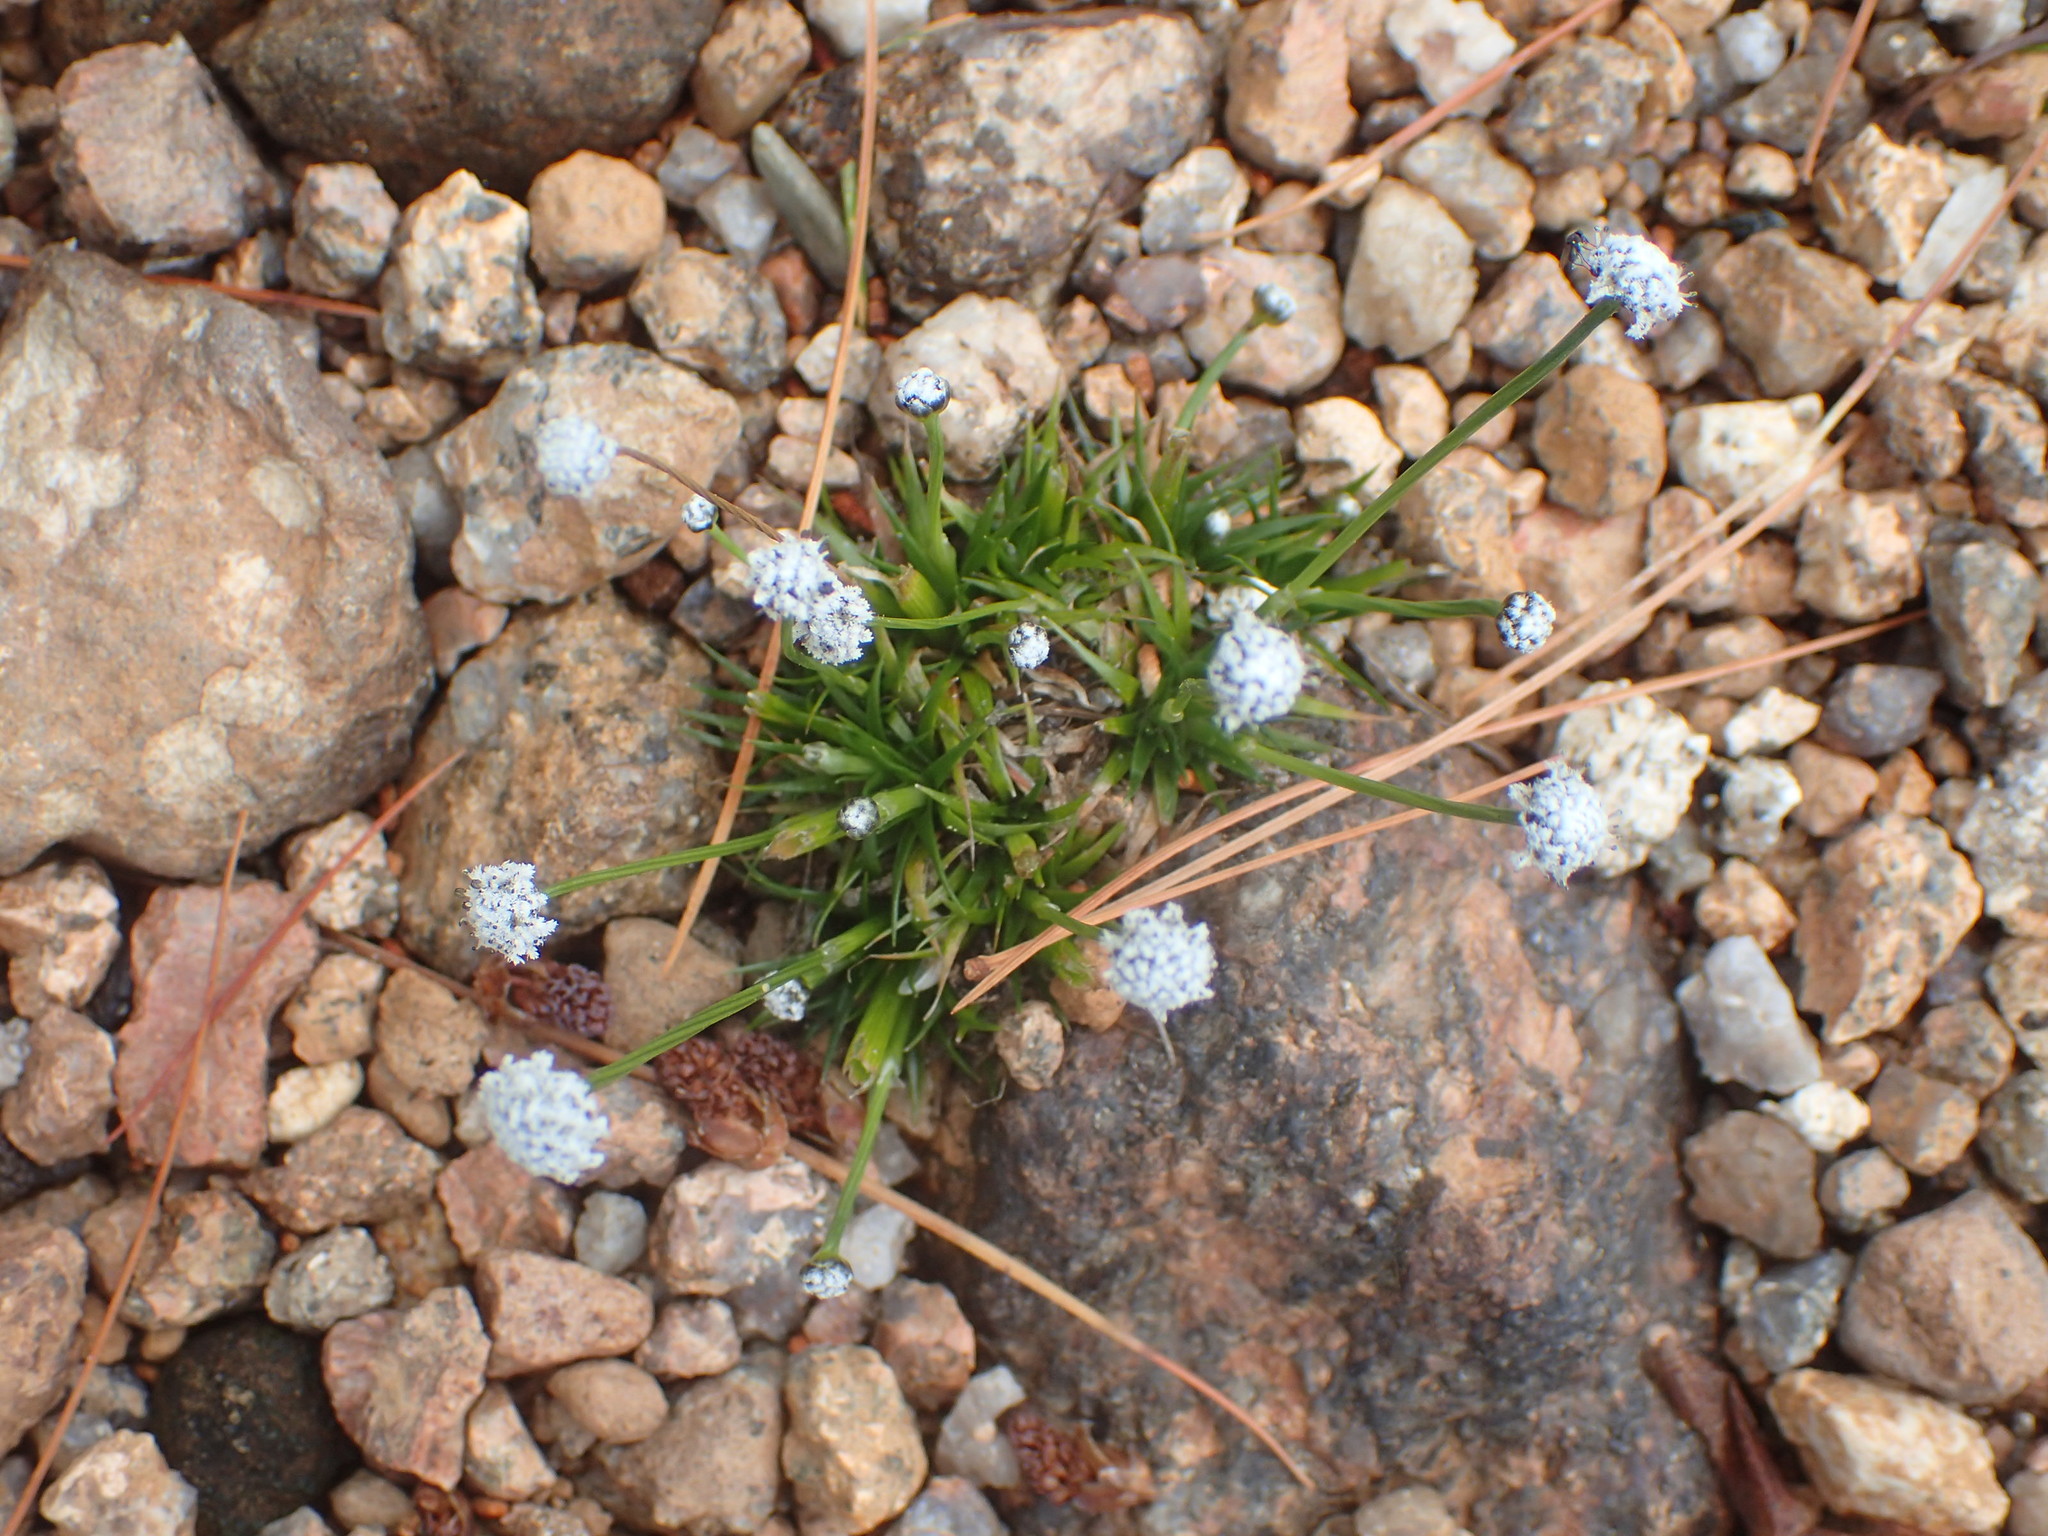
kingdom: Plantae
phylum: Tracheophyta
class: Liliopsida
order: Poales
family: Eriocaulaceae
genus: Eriocaulon
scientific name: Eriocaulon aquaticum
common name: Pipewort
